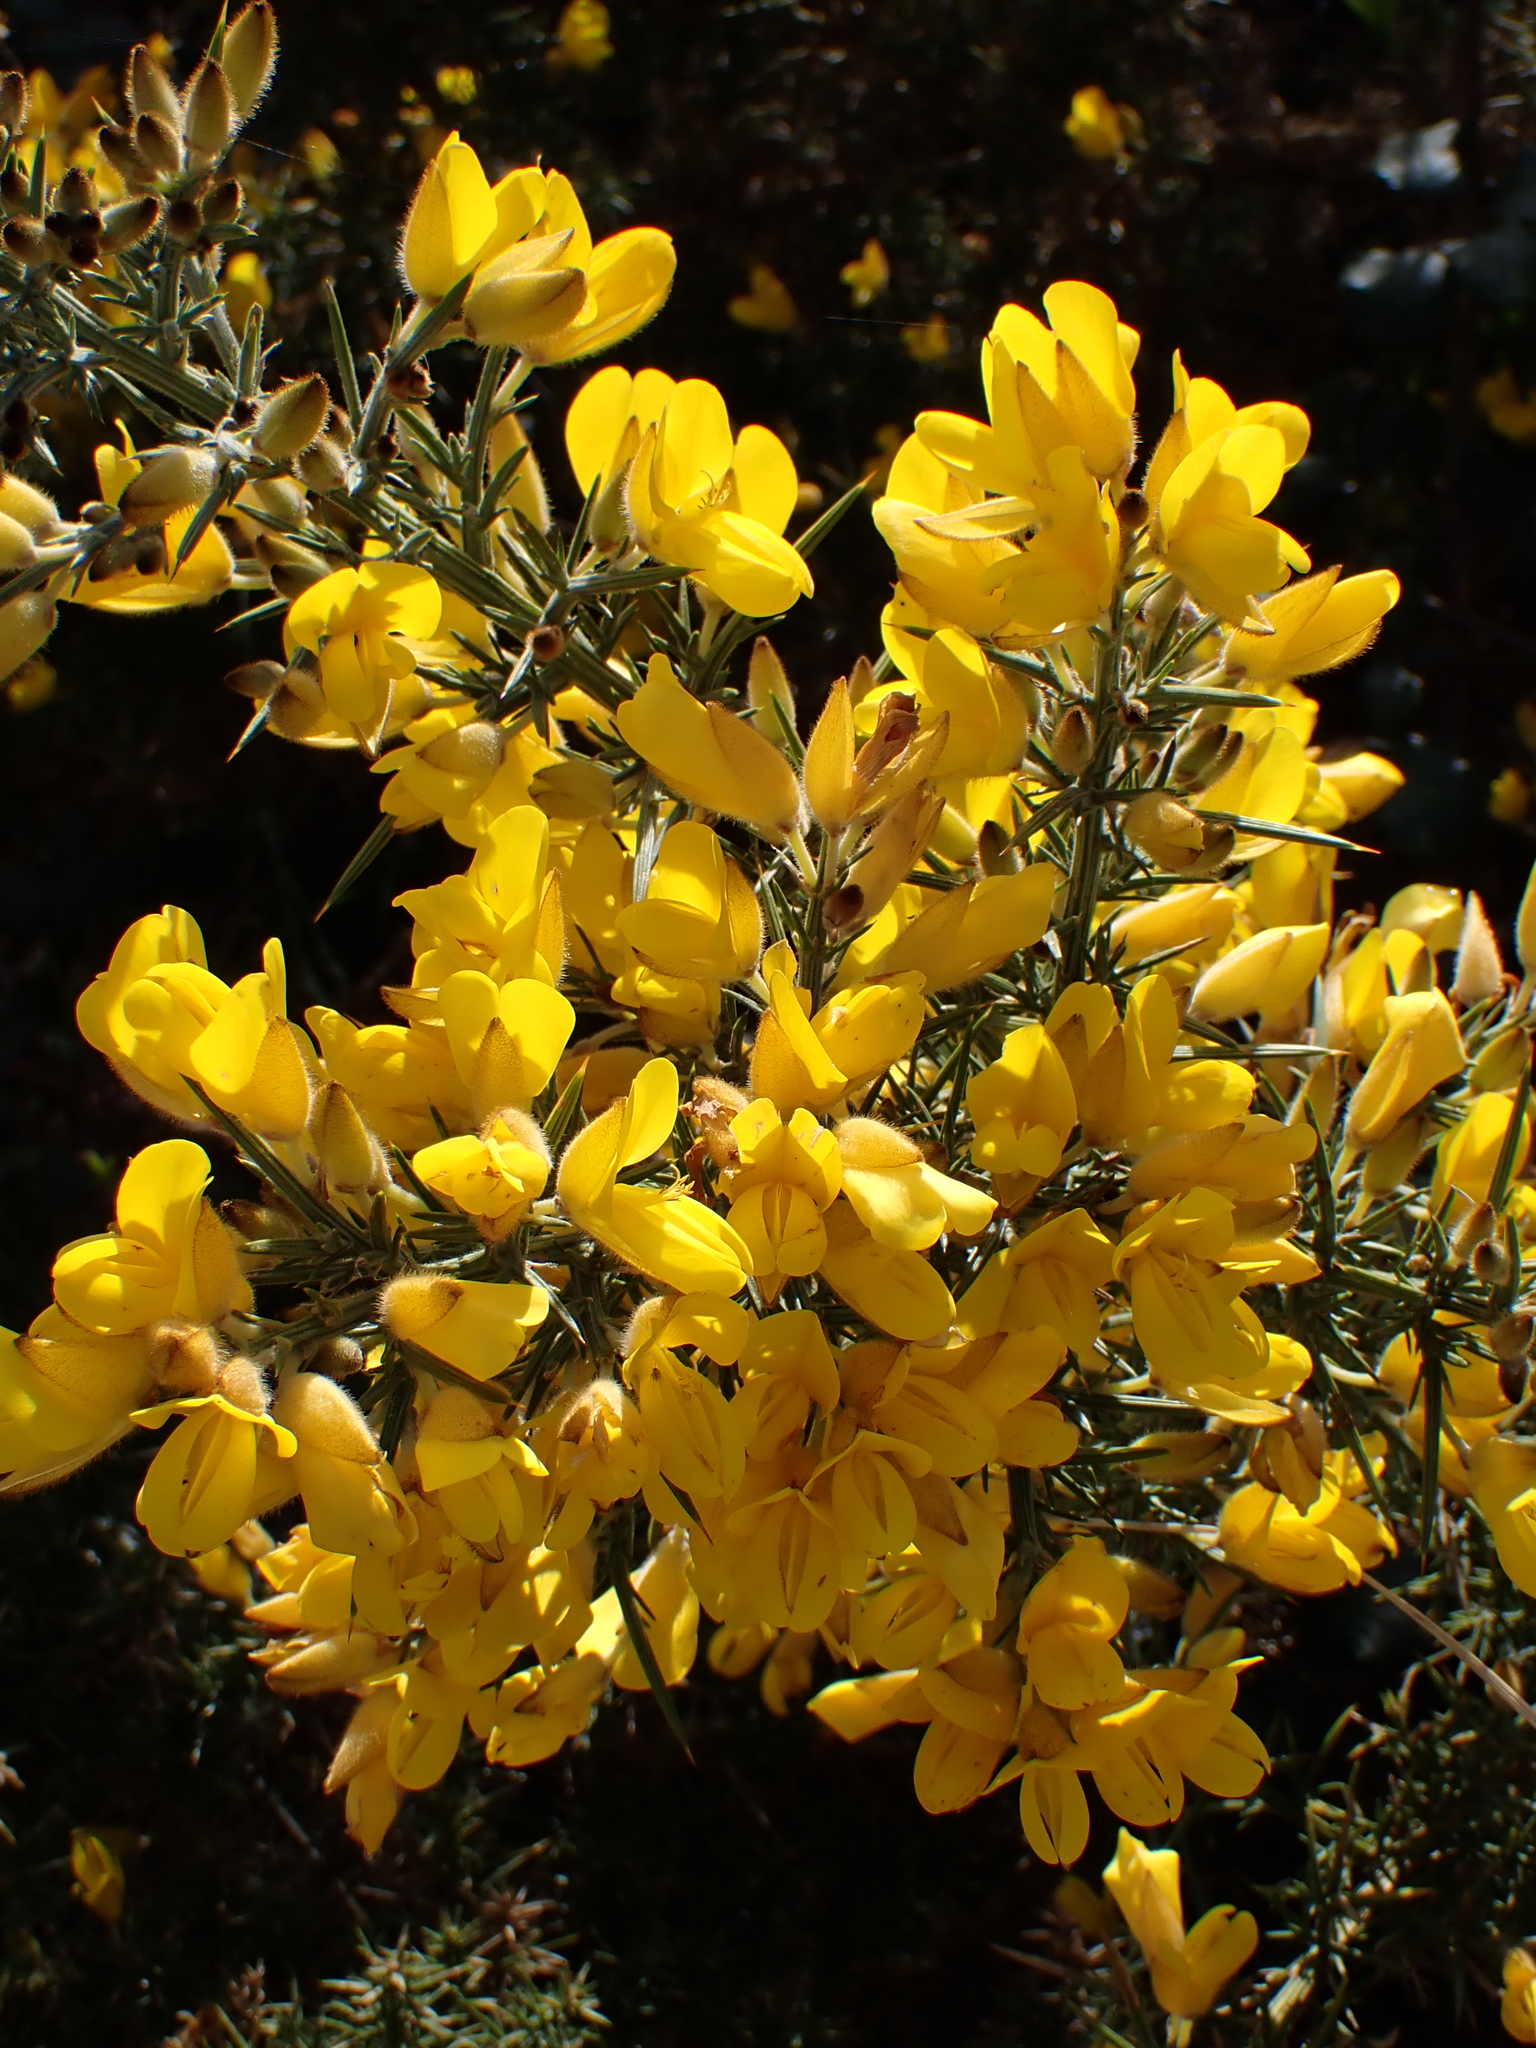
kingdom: Plantae
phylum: Tracheophyta
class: Magnoliopsida
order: Fabales
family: Fabaceae
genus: Ulex
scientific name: Ulex europaeus
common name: Common gorse
